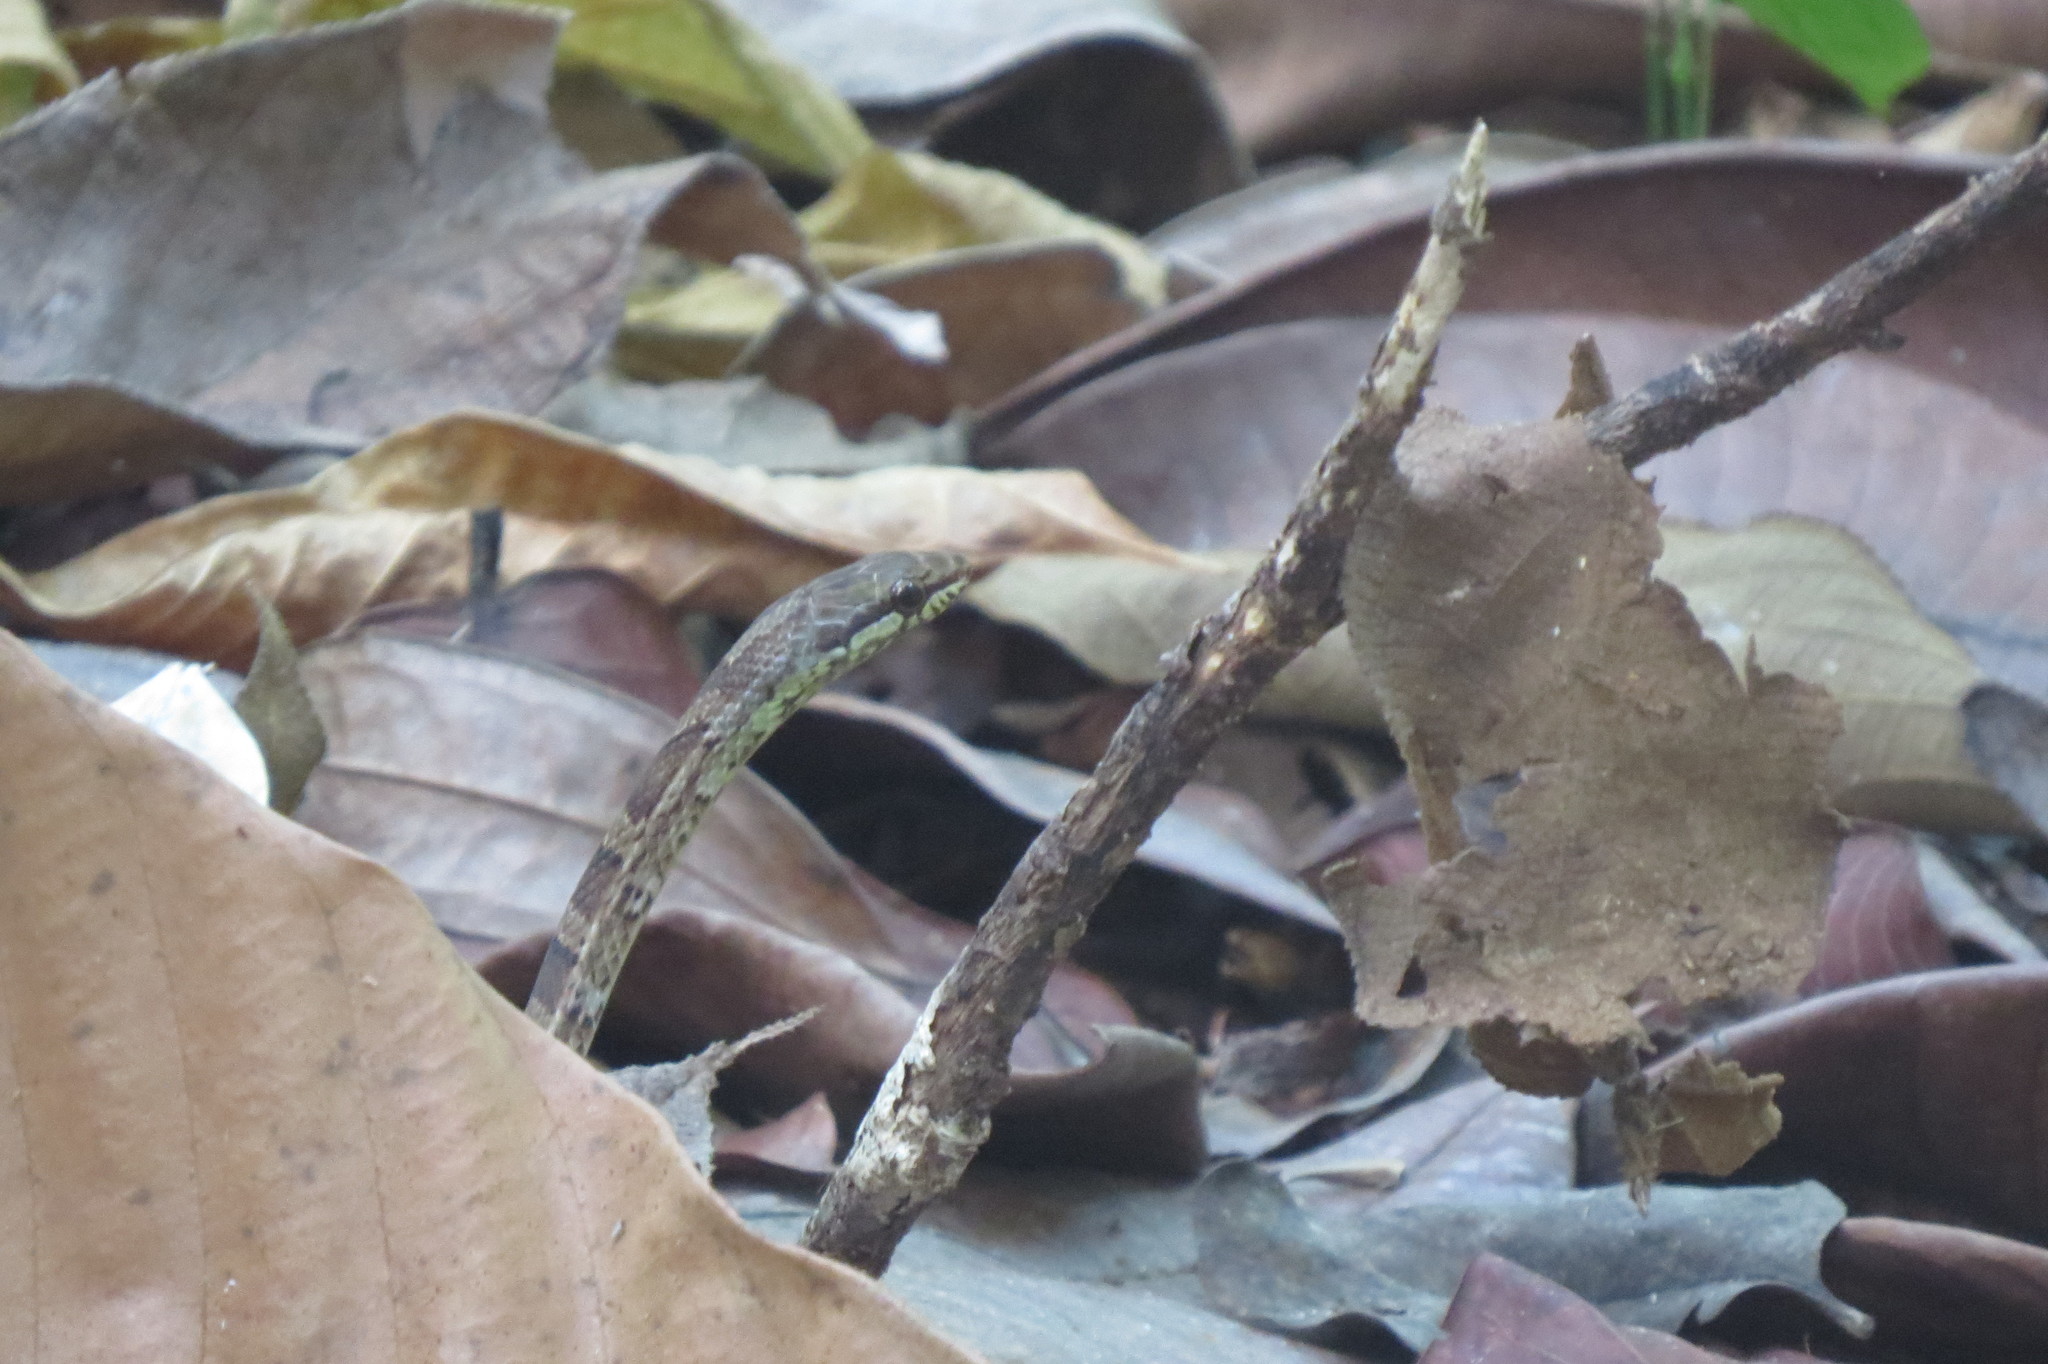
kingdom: Animalia
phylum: Chordata
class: Squamata
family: Colubridae
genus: Mastigodryas
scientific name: Mastigodryas melanolomus
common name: Salmon-bellied racer
